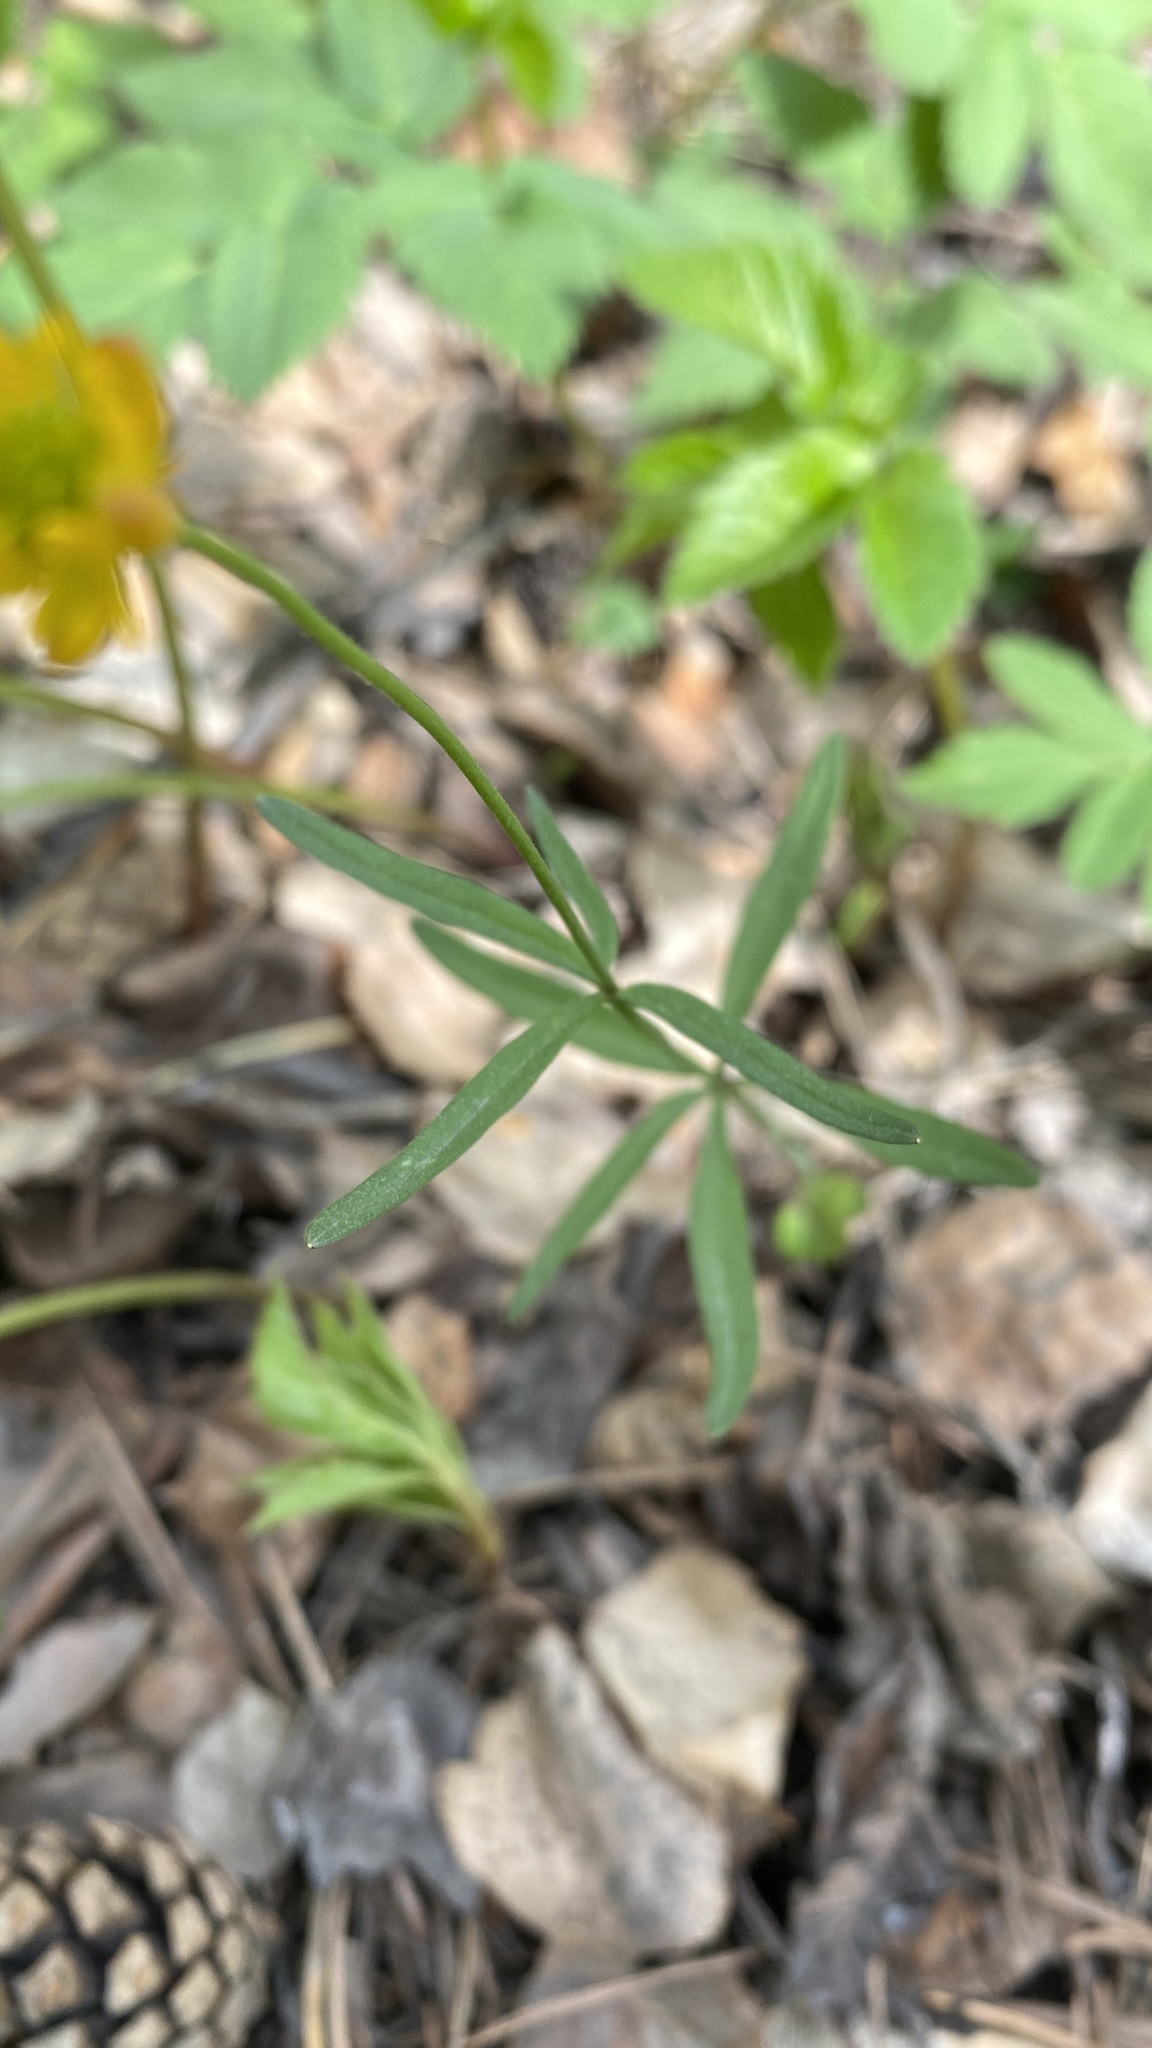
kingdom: Plantae
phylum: Tracheophyta
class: Magnoliopsida
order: Ranunculales
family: Ranunculaceae
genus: Ranunculus
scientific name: Ranunculus monophyllus
